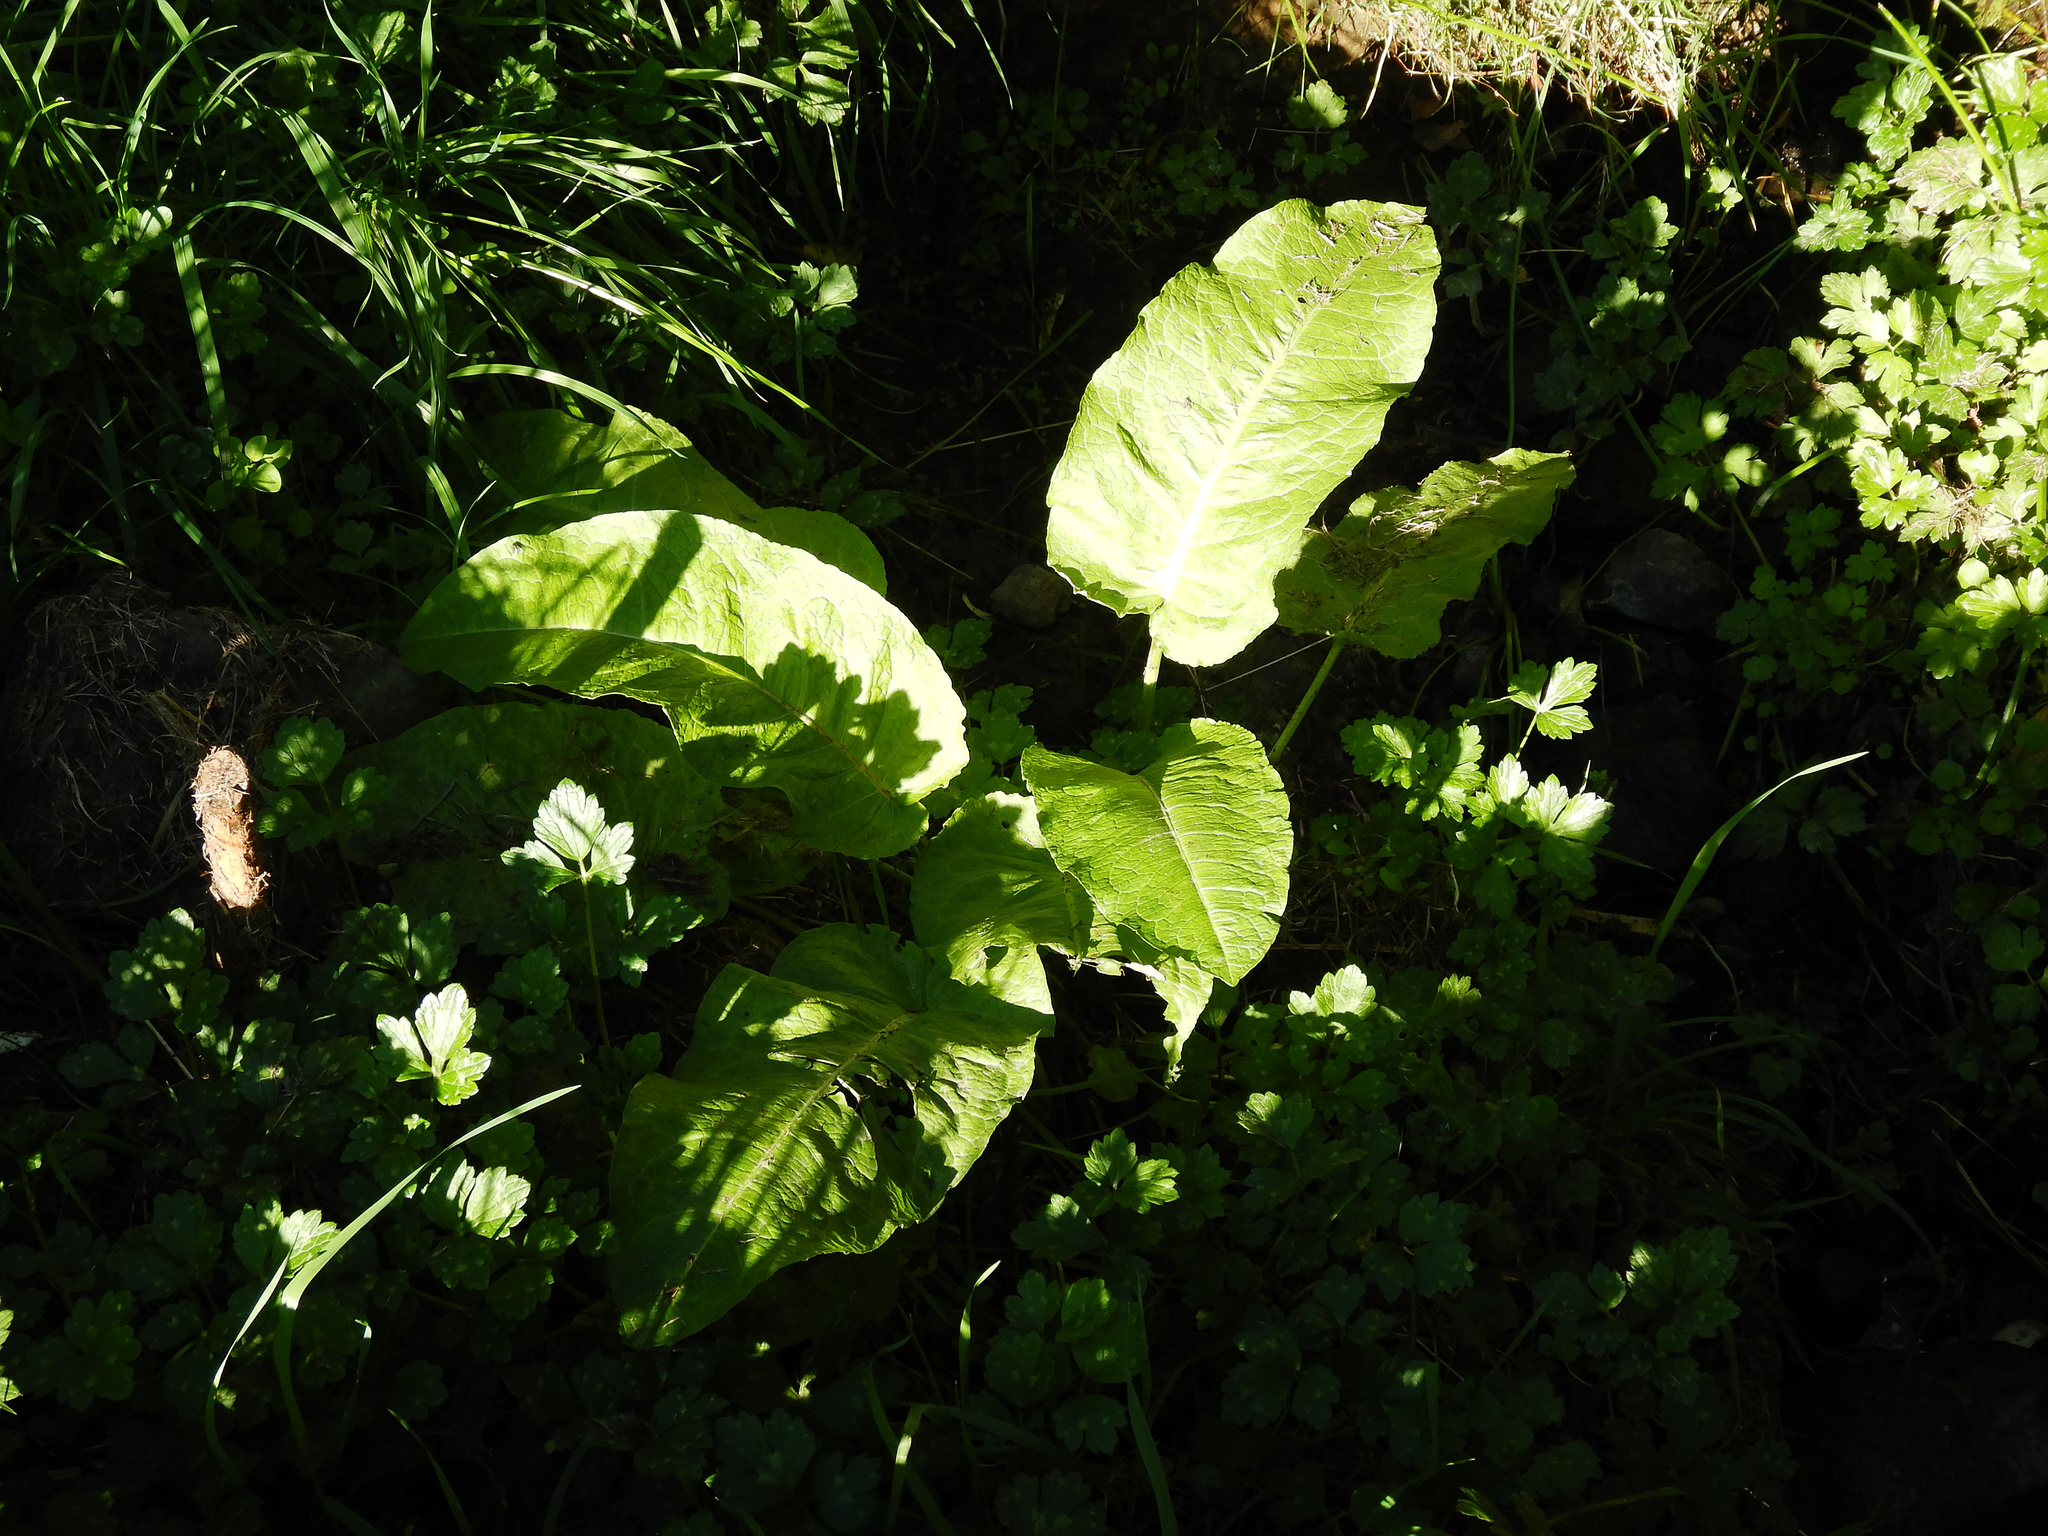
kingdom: Plantae
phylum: Tracheophyta
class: Magnoliopsida
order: Caryophyllales
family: Polygonaceae
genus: Rumex
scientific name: Rumex obtusifolius
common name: Bitter dock
